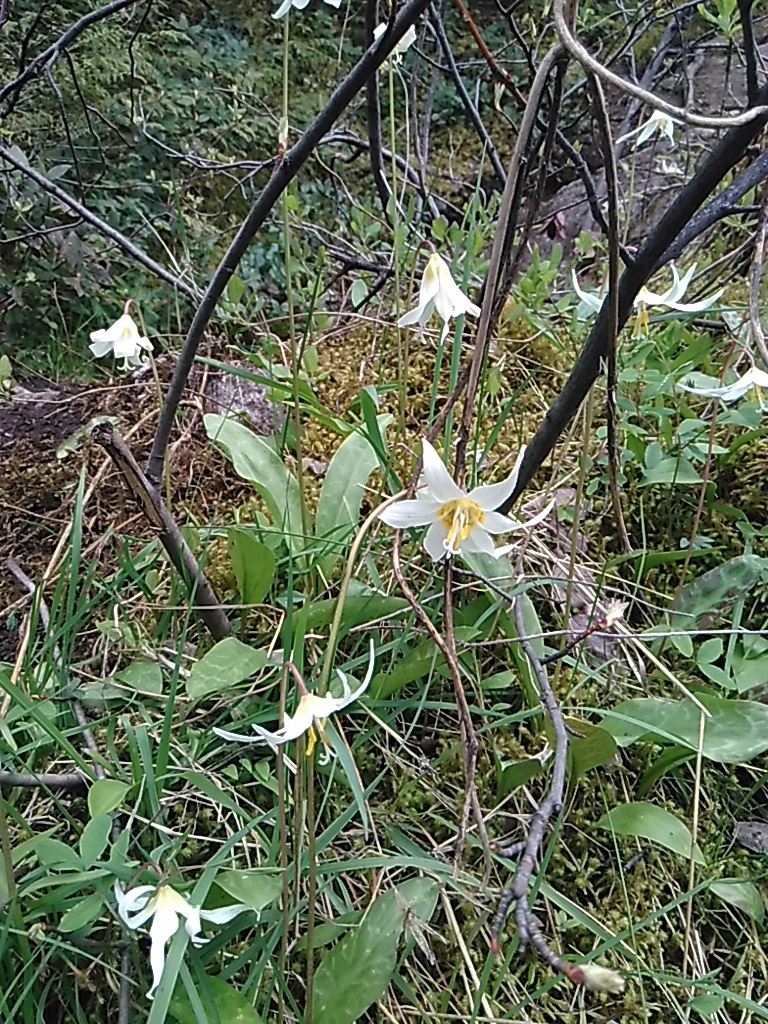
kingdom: Plantae
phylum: Tracheophyta
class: Liliopsida
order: Liliales
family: Liliaceae
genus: Erythronium
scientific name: Erythronium oregonum
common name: Giant adder's-tongue
